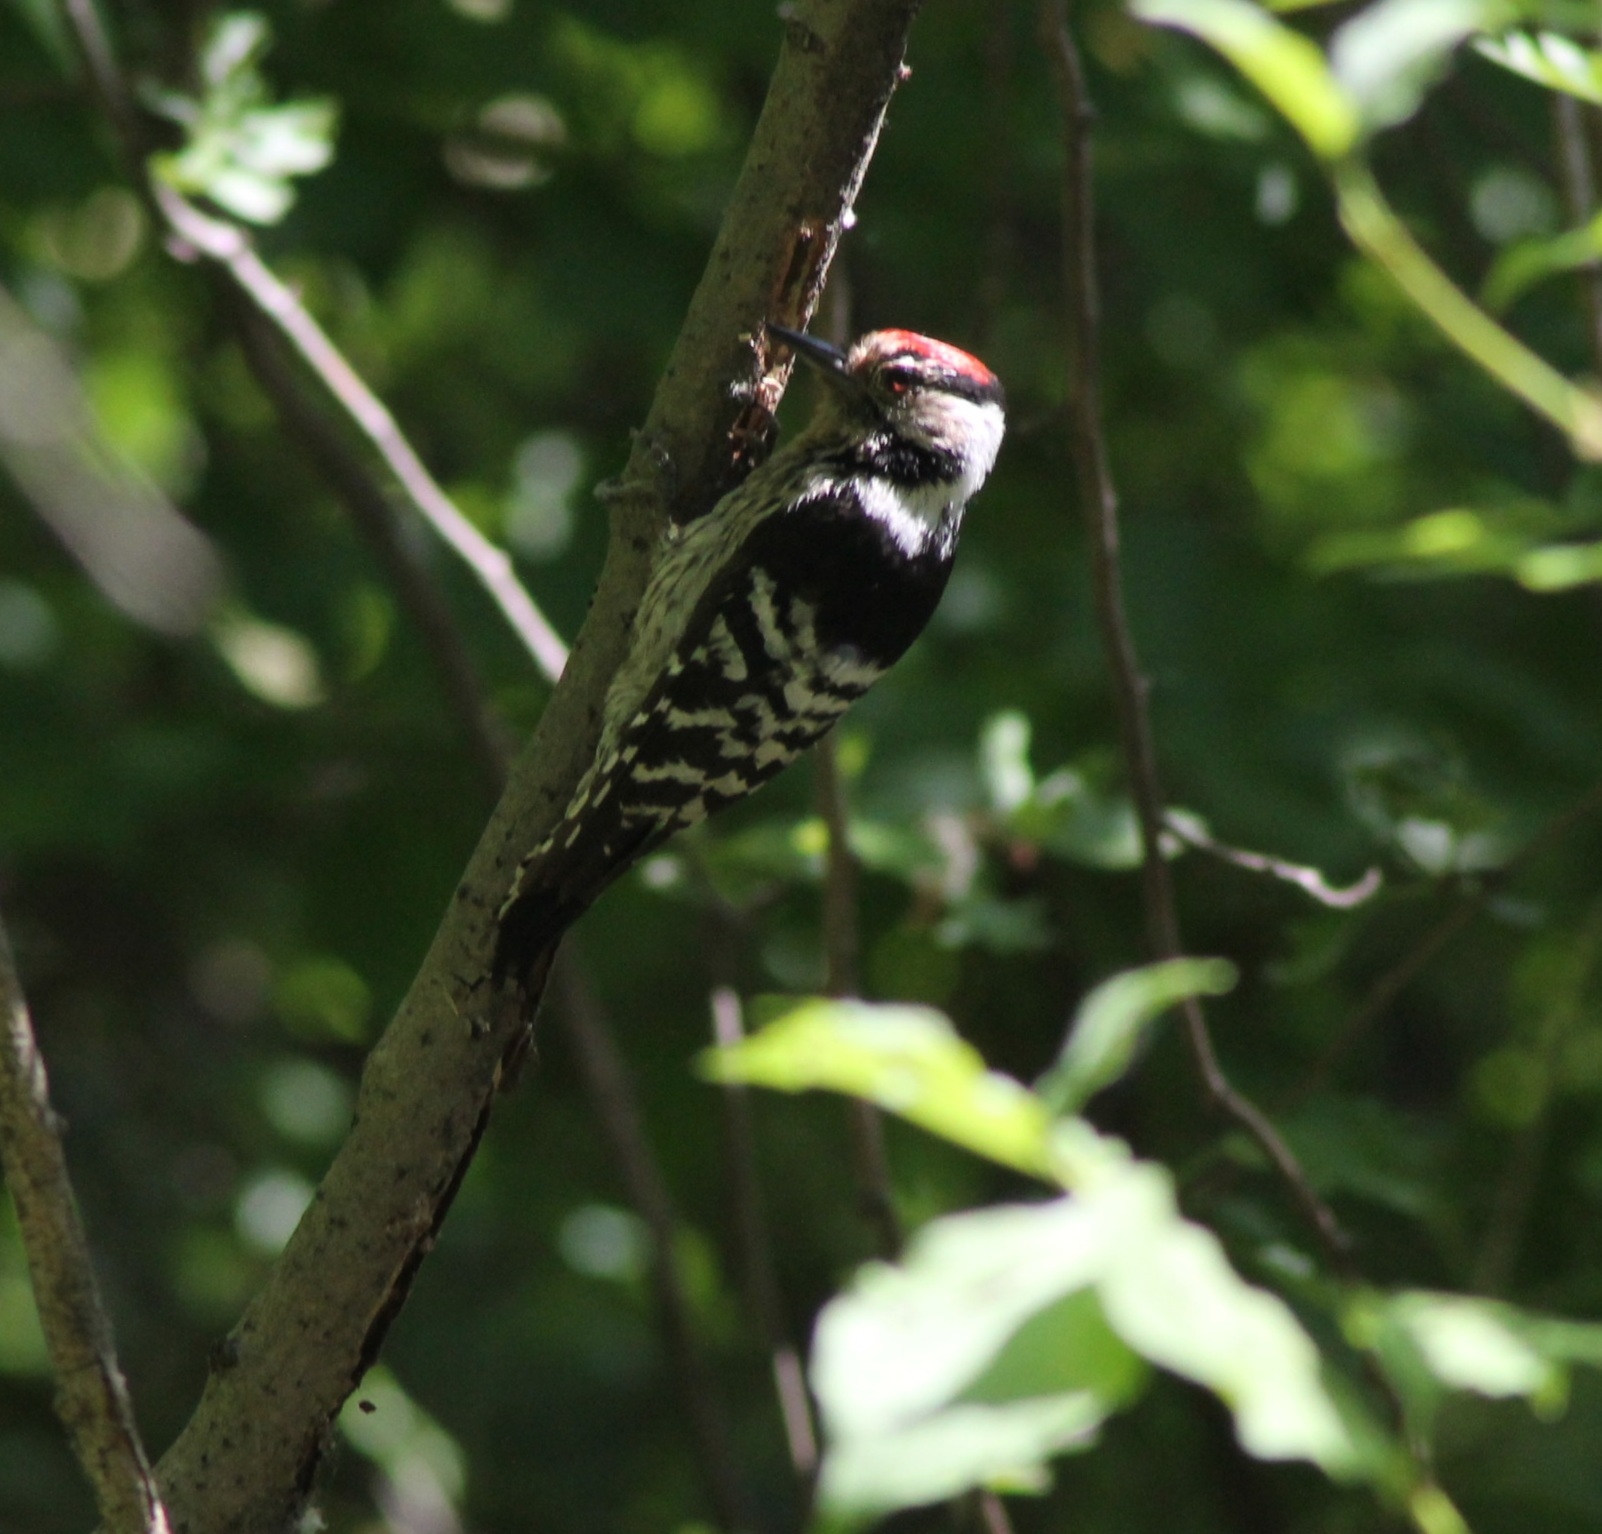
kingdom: Animalia
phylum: Chordata
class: Aves
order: Piciformes
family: Picidae
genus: Dryobates
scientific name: Dryobates minor
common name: Lesser spotted woodpecker
